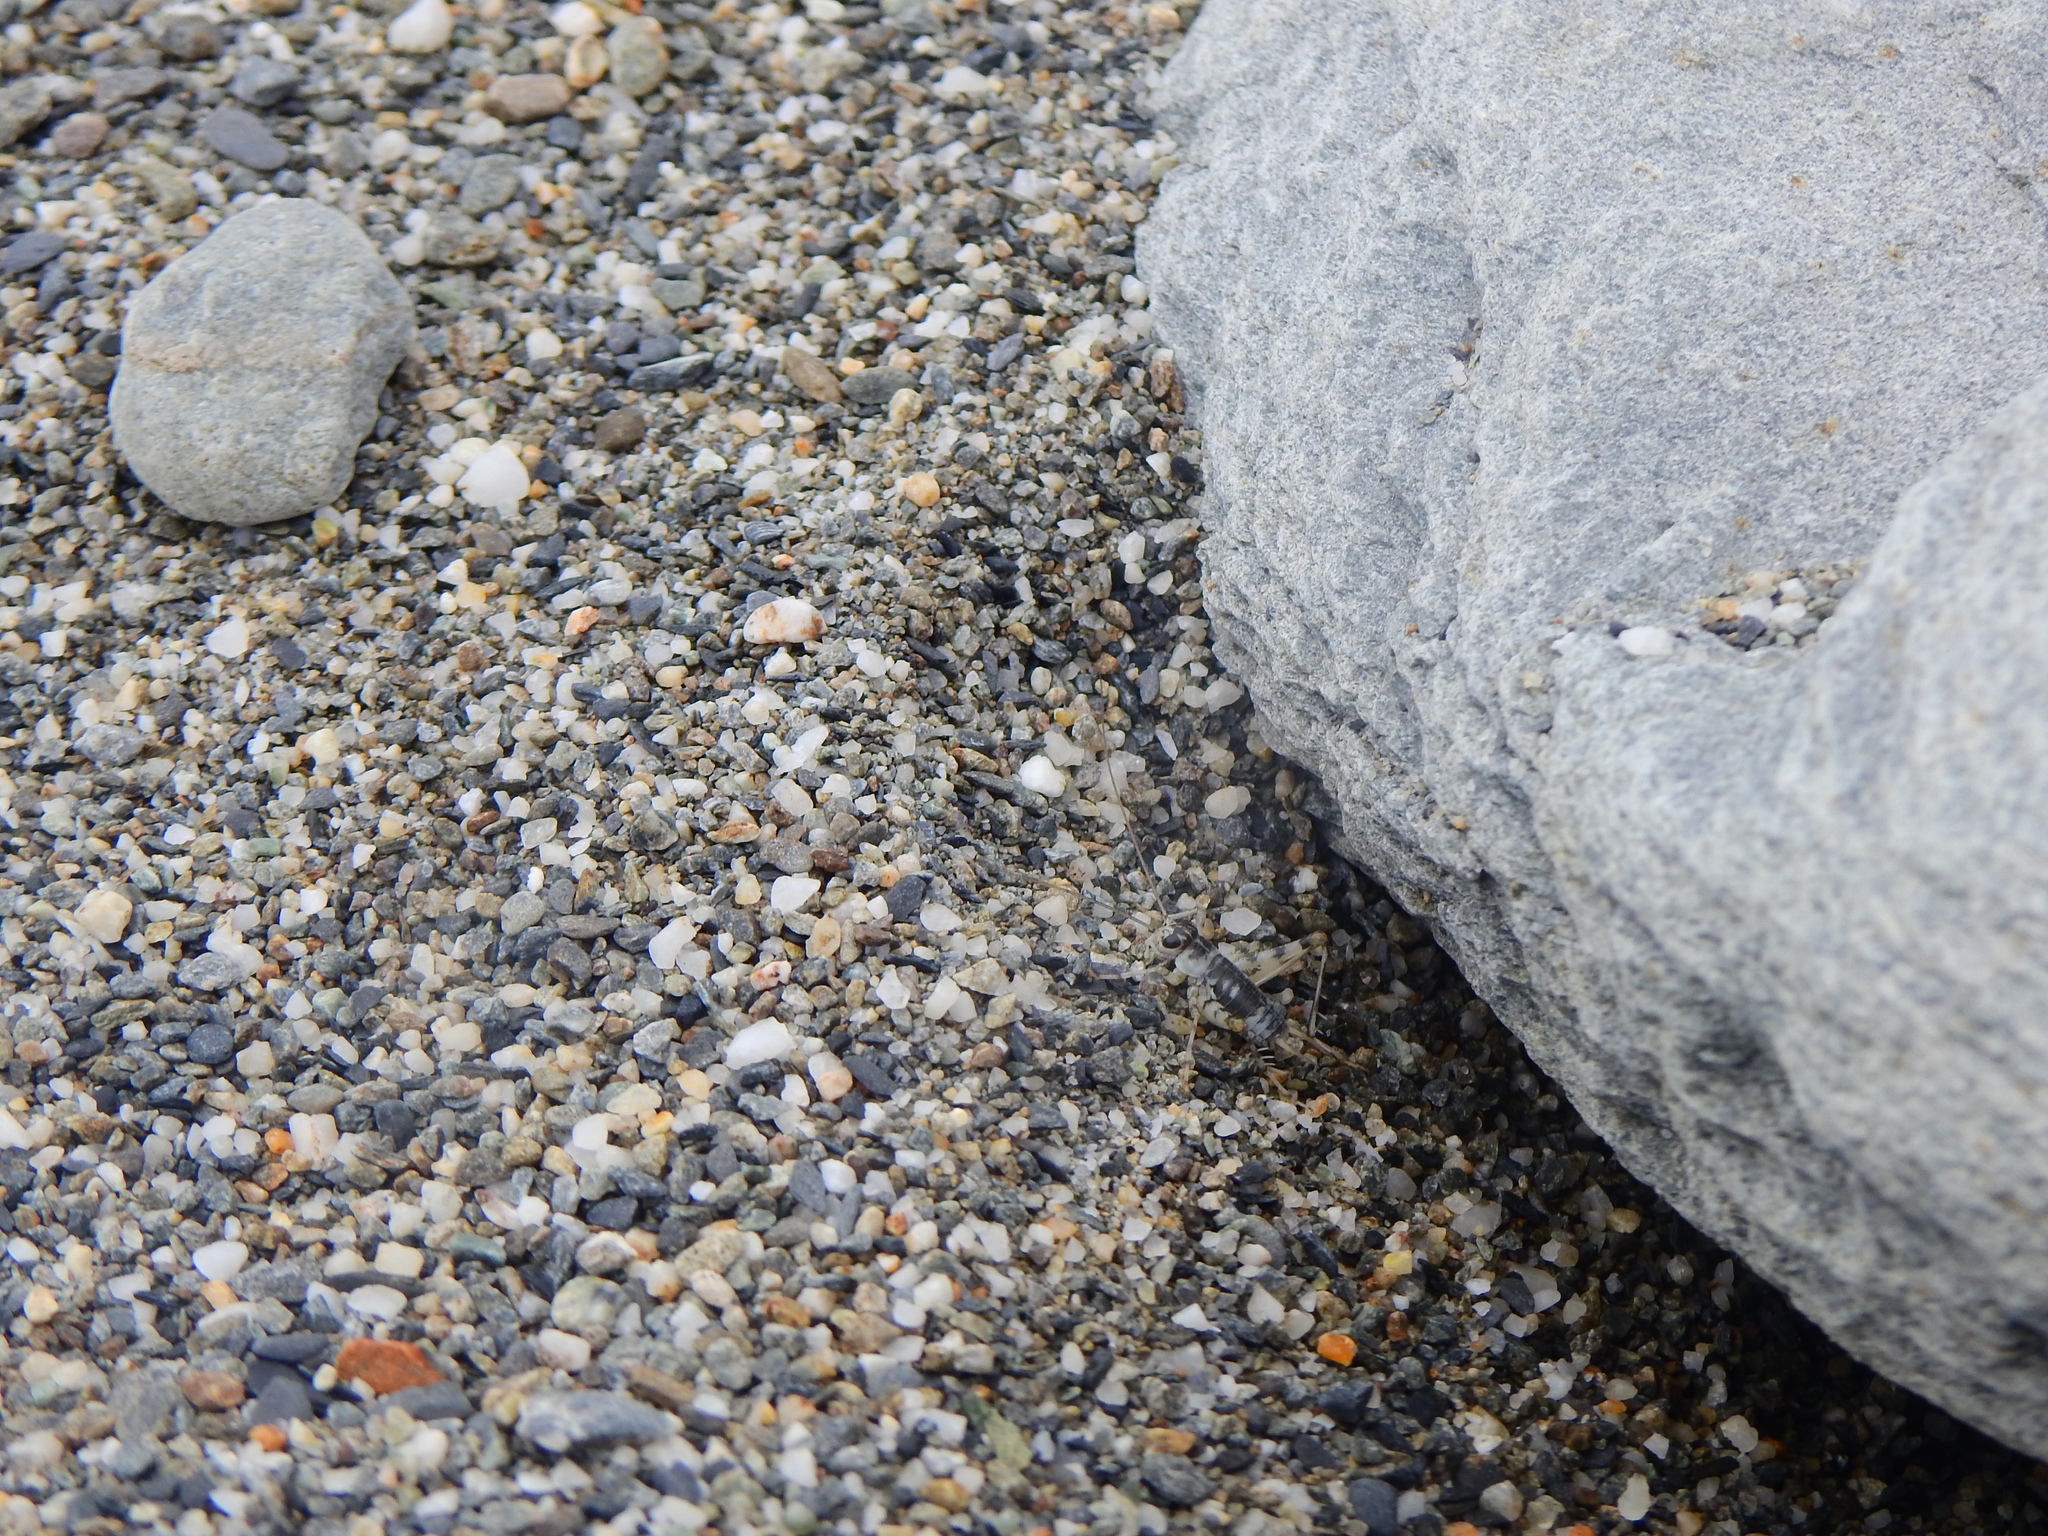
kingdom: Animalia
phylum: Arthropoda
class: Insecta
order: Orthoptera
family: Trigonidiidae
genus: Taiwanemobius
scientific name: Taiwanemobius formosanus
